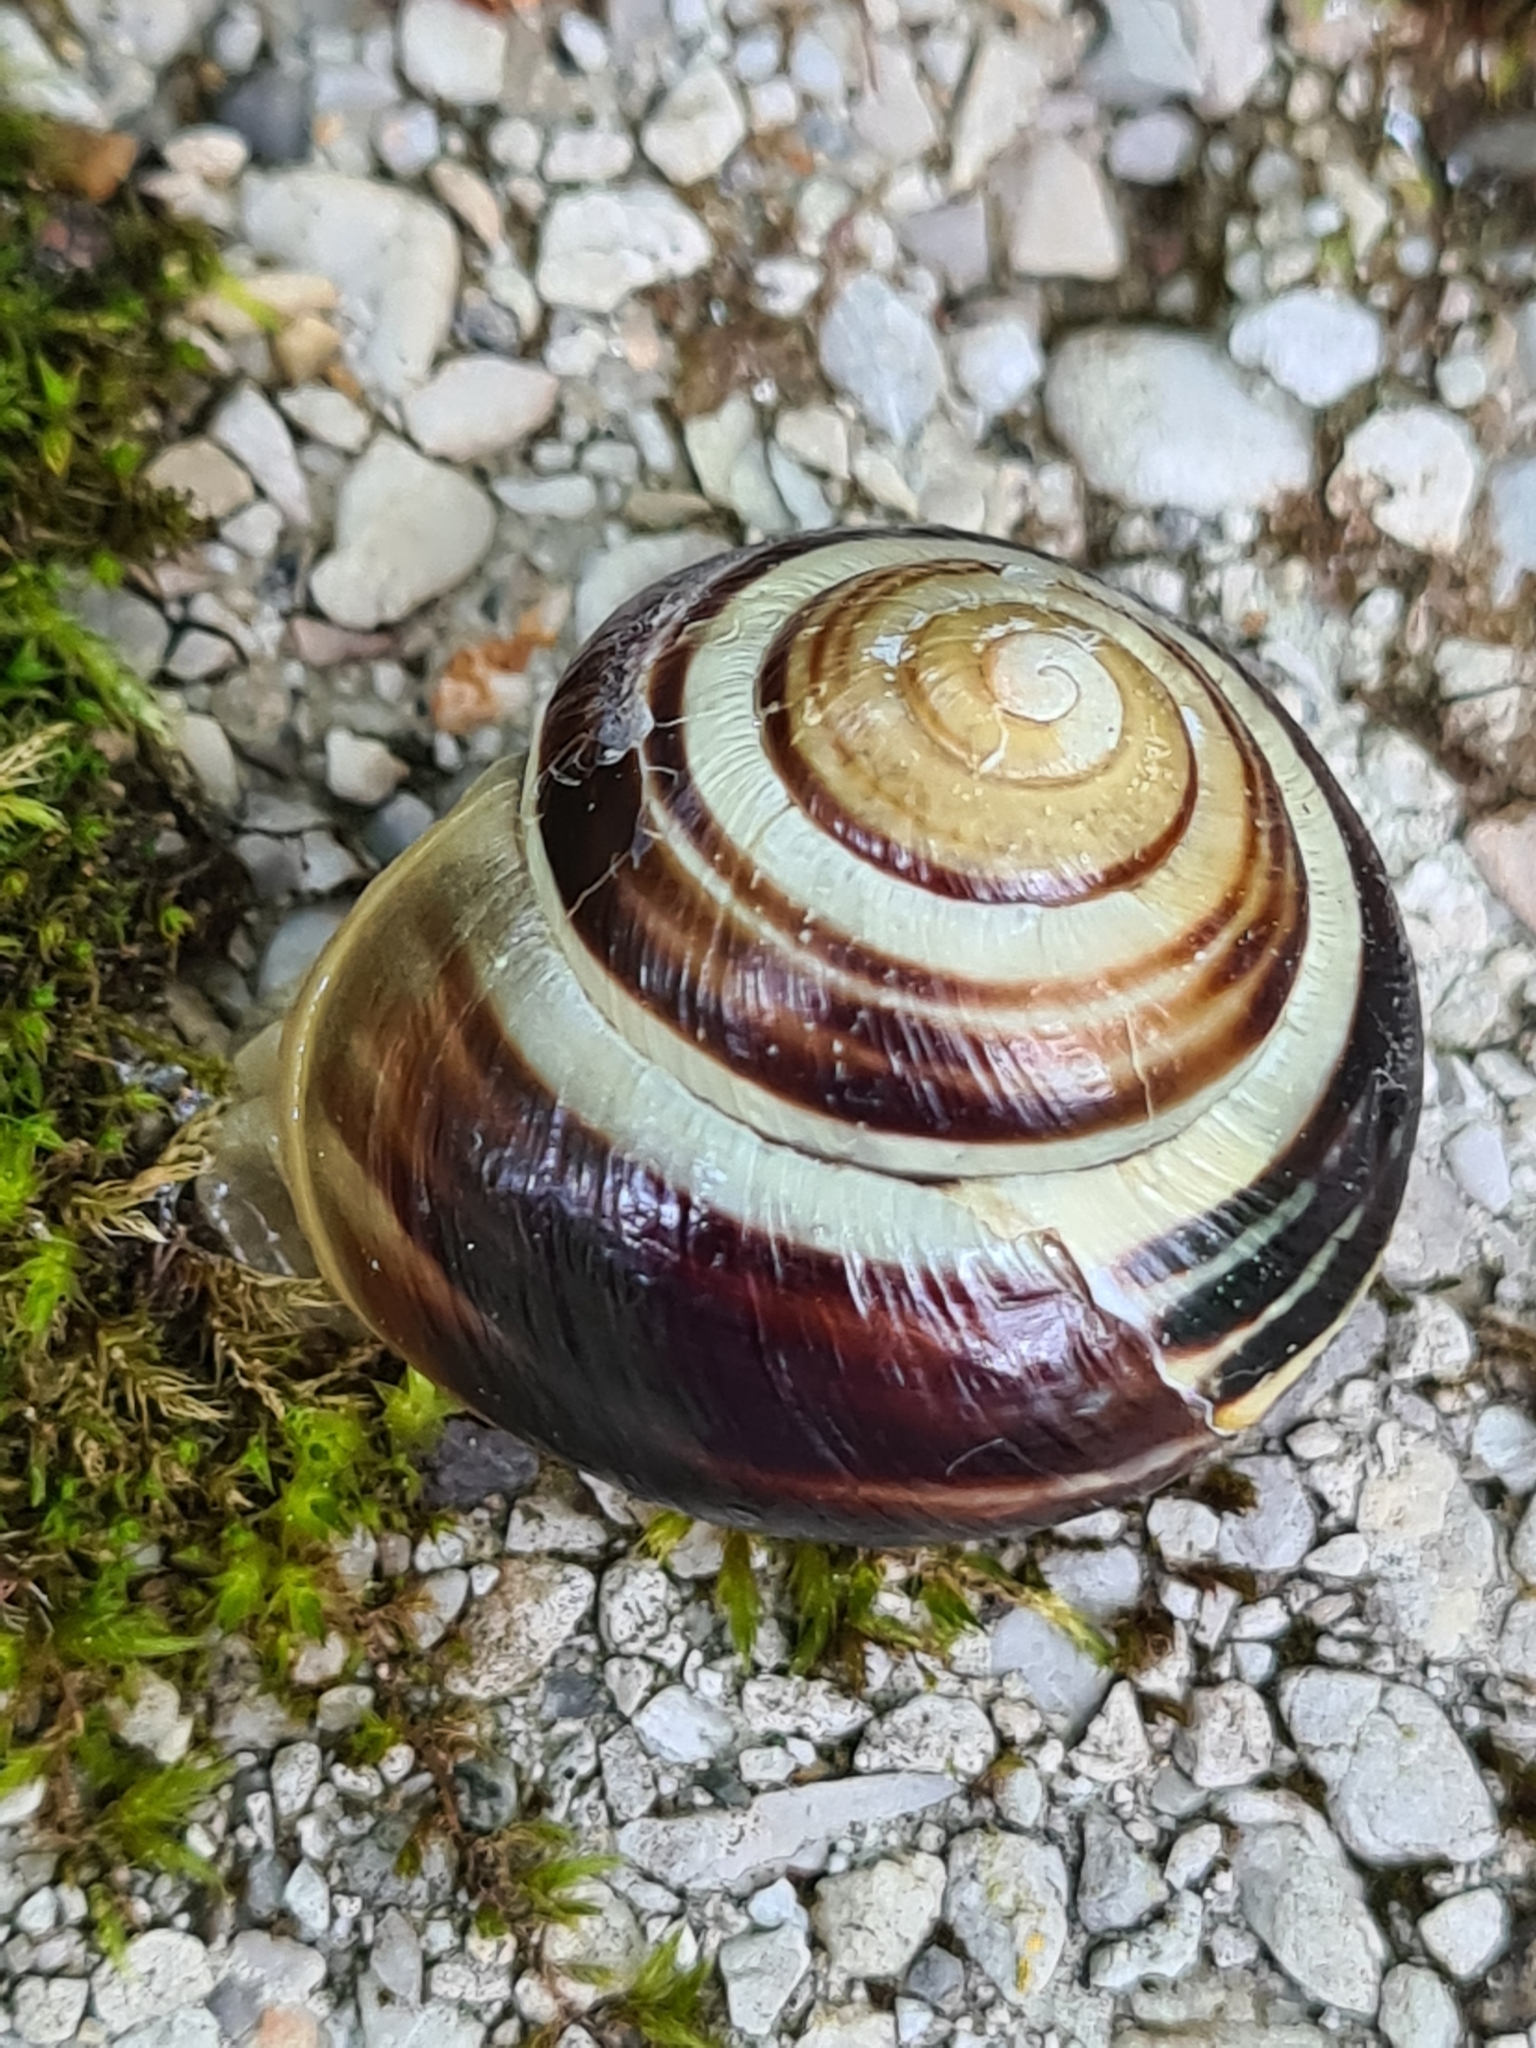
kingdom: Animalia
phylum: Mollusca
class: Gastropoda
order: Stylommatophora
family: Helicidae
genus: Cepaea
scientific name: Cepaea
